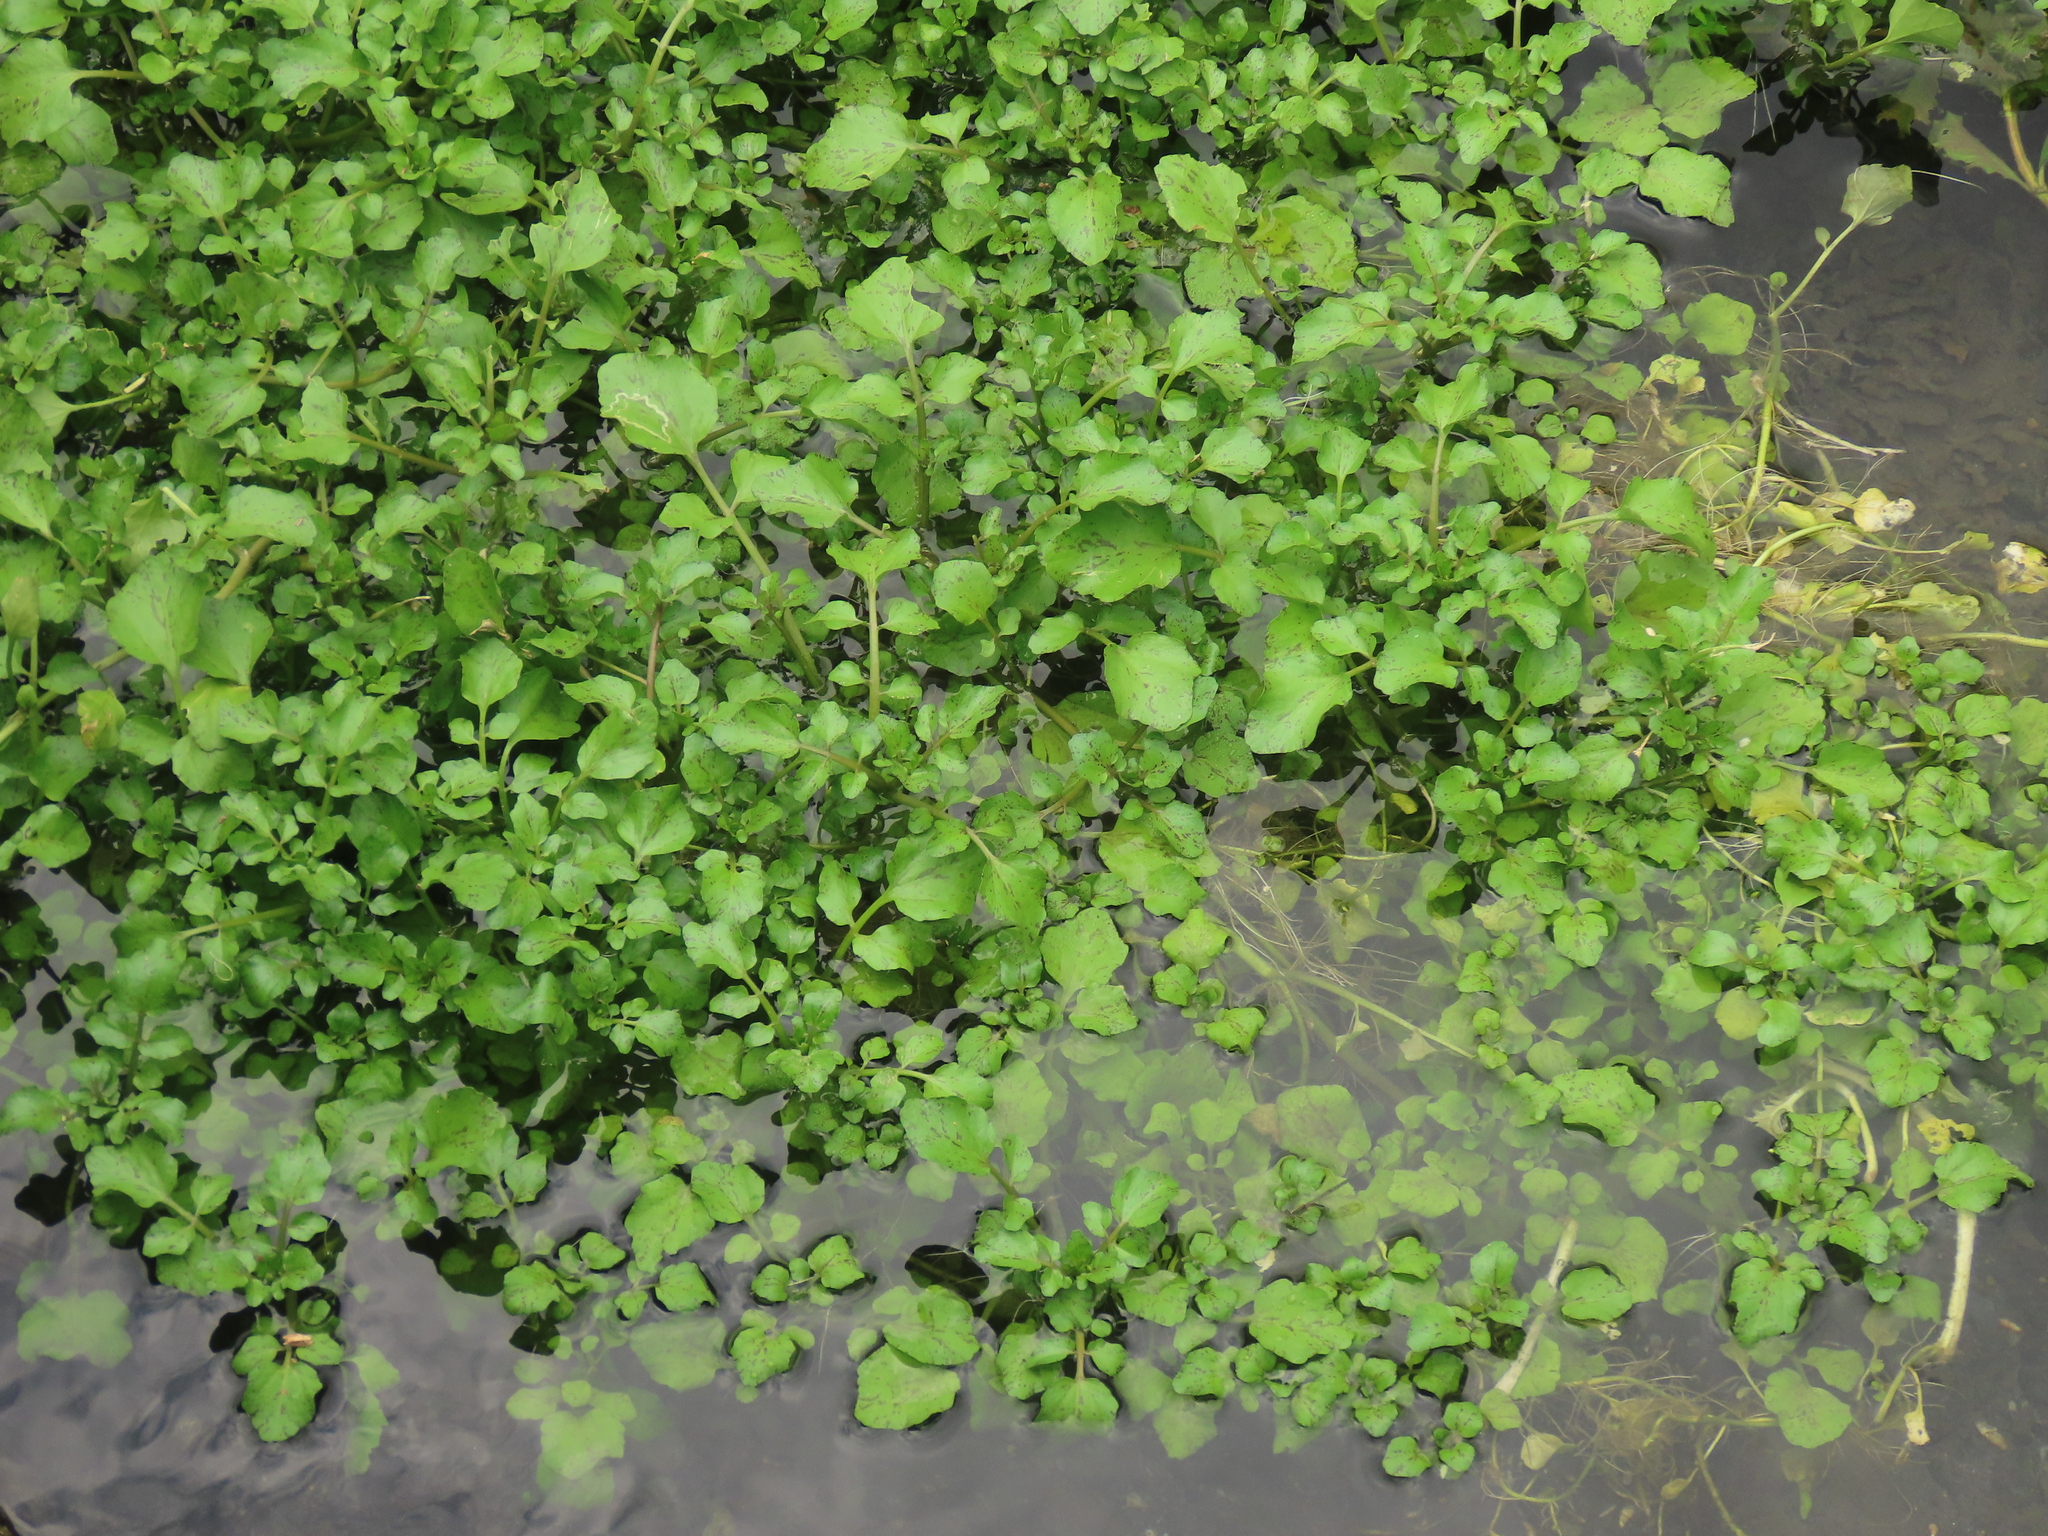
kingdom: Plantae
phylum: Tracheophyta
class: Magnoliopsida
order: Brassicales
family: Brassicaceae
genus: Nasturtium
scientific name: Nasturtium officinale
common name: Watercress
